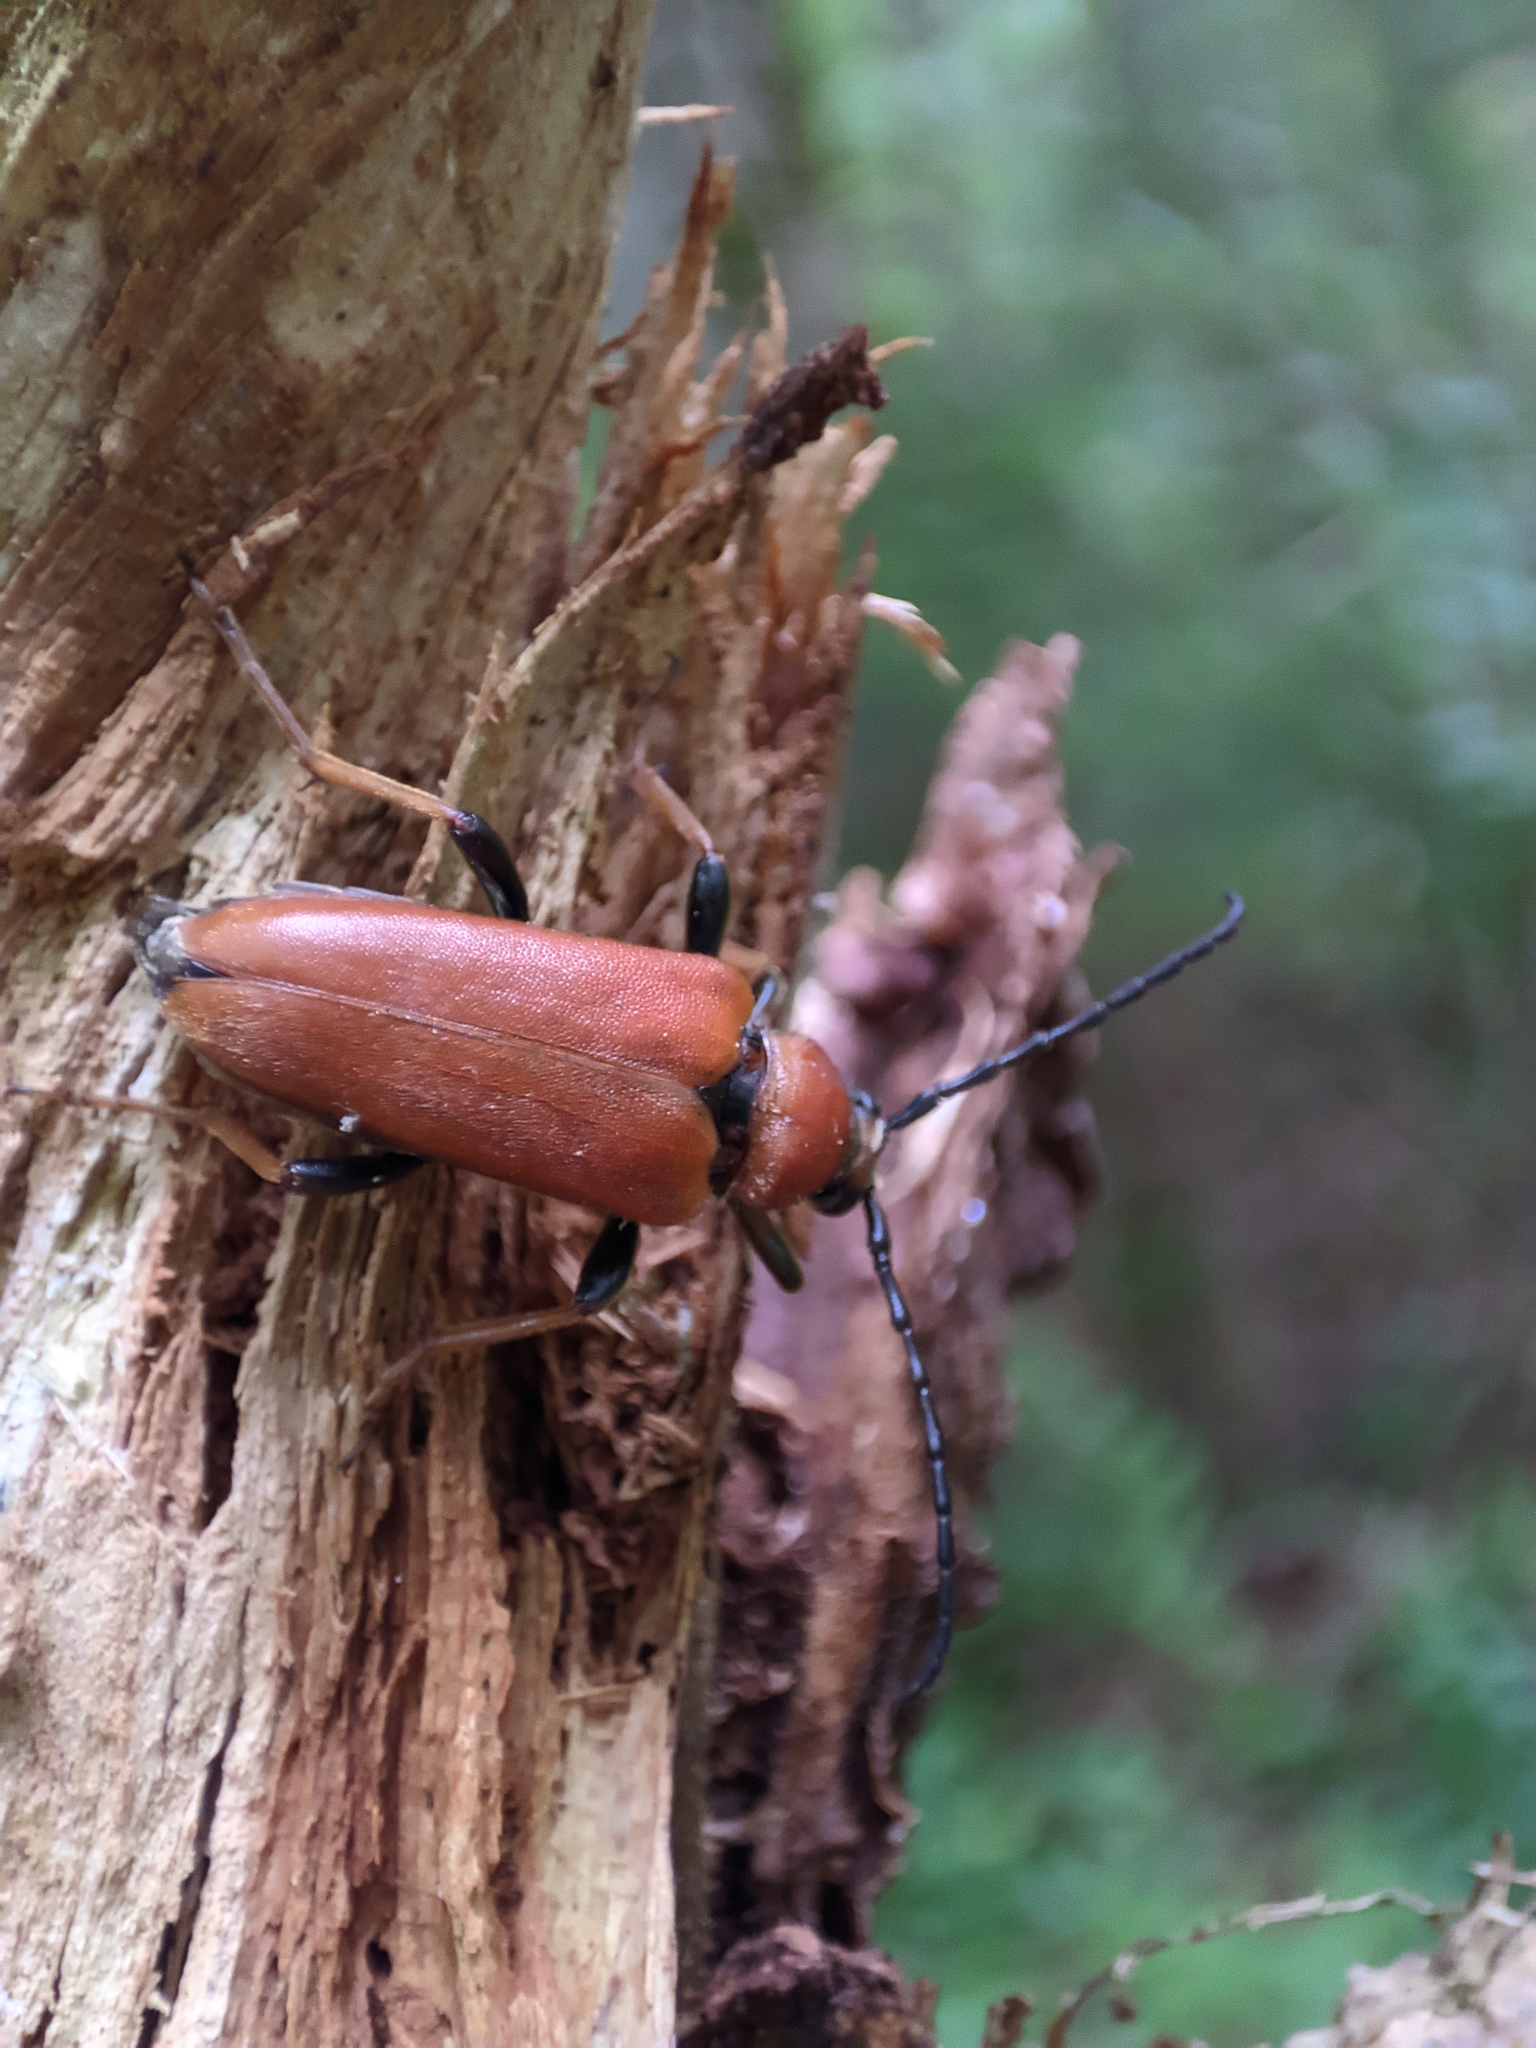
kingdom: Animalia
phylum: Arthropoda
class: Insecta
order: Coleoptera
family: Cerambycidae
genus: Stictoleptura
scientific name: Stictoleptura rubra
